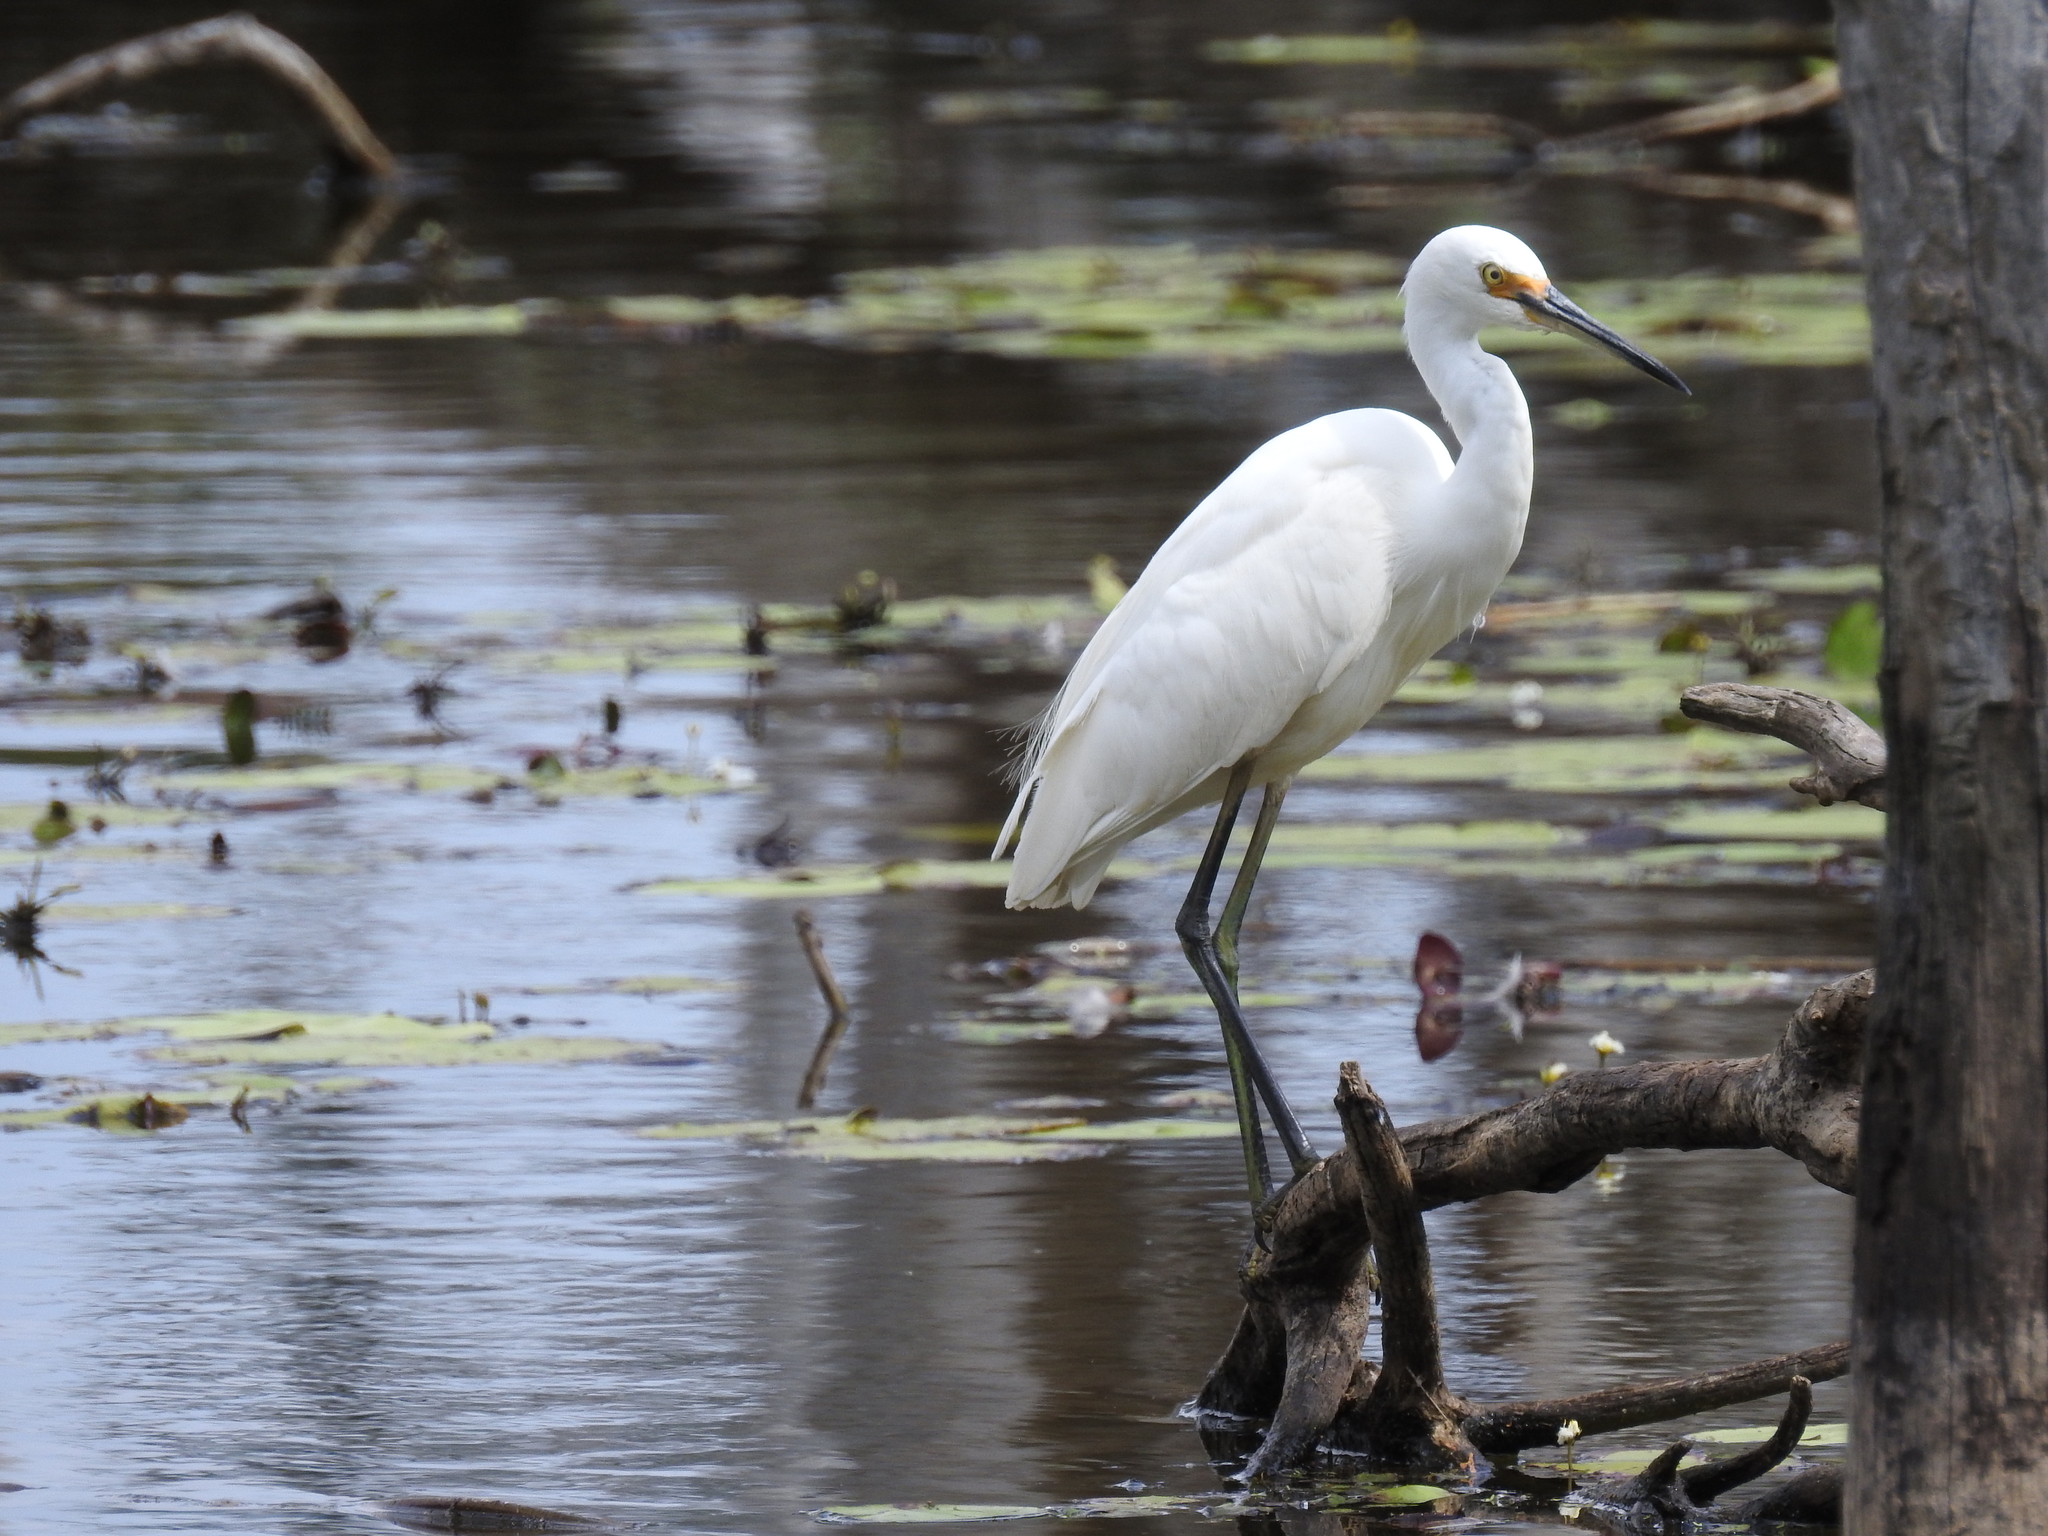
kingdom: Animalia
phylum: Chordata
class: Aves
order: Pelecaniformes
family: Ardeidae
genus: Egretta
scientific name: Egretta garzetta
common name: Little egret
